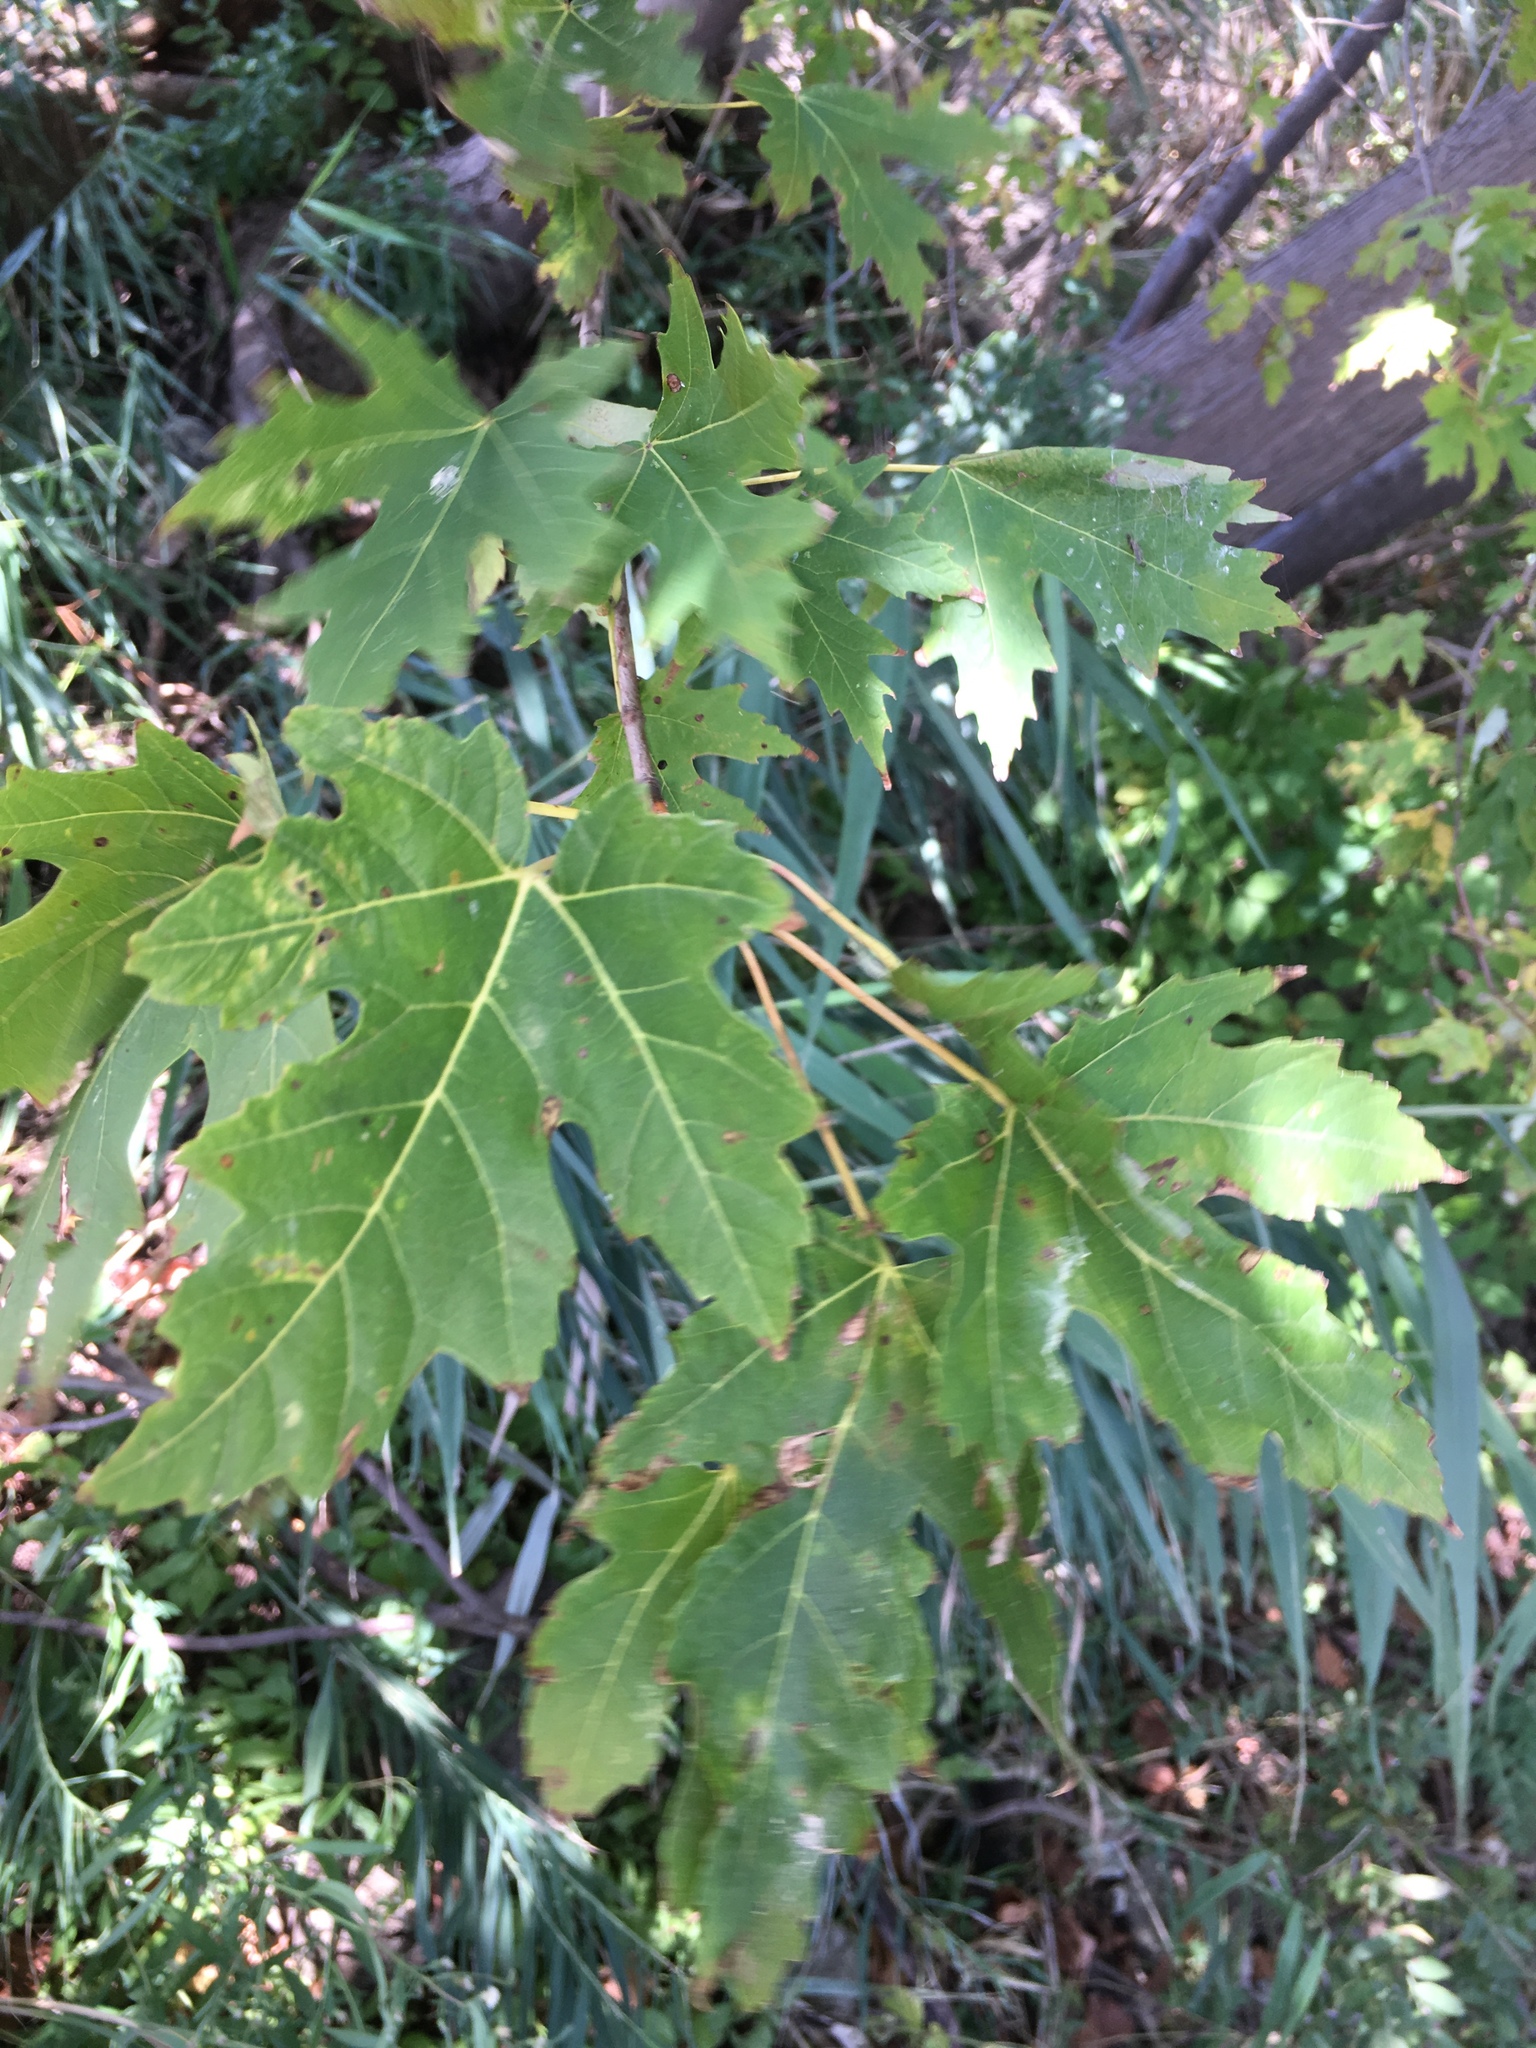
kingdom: Plantae
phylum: Tracheophyta
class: Magnoliopsida
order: Sapindales
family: Sapindaceae
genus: Acer
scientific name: Acer saccharinum
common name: Silver maple
